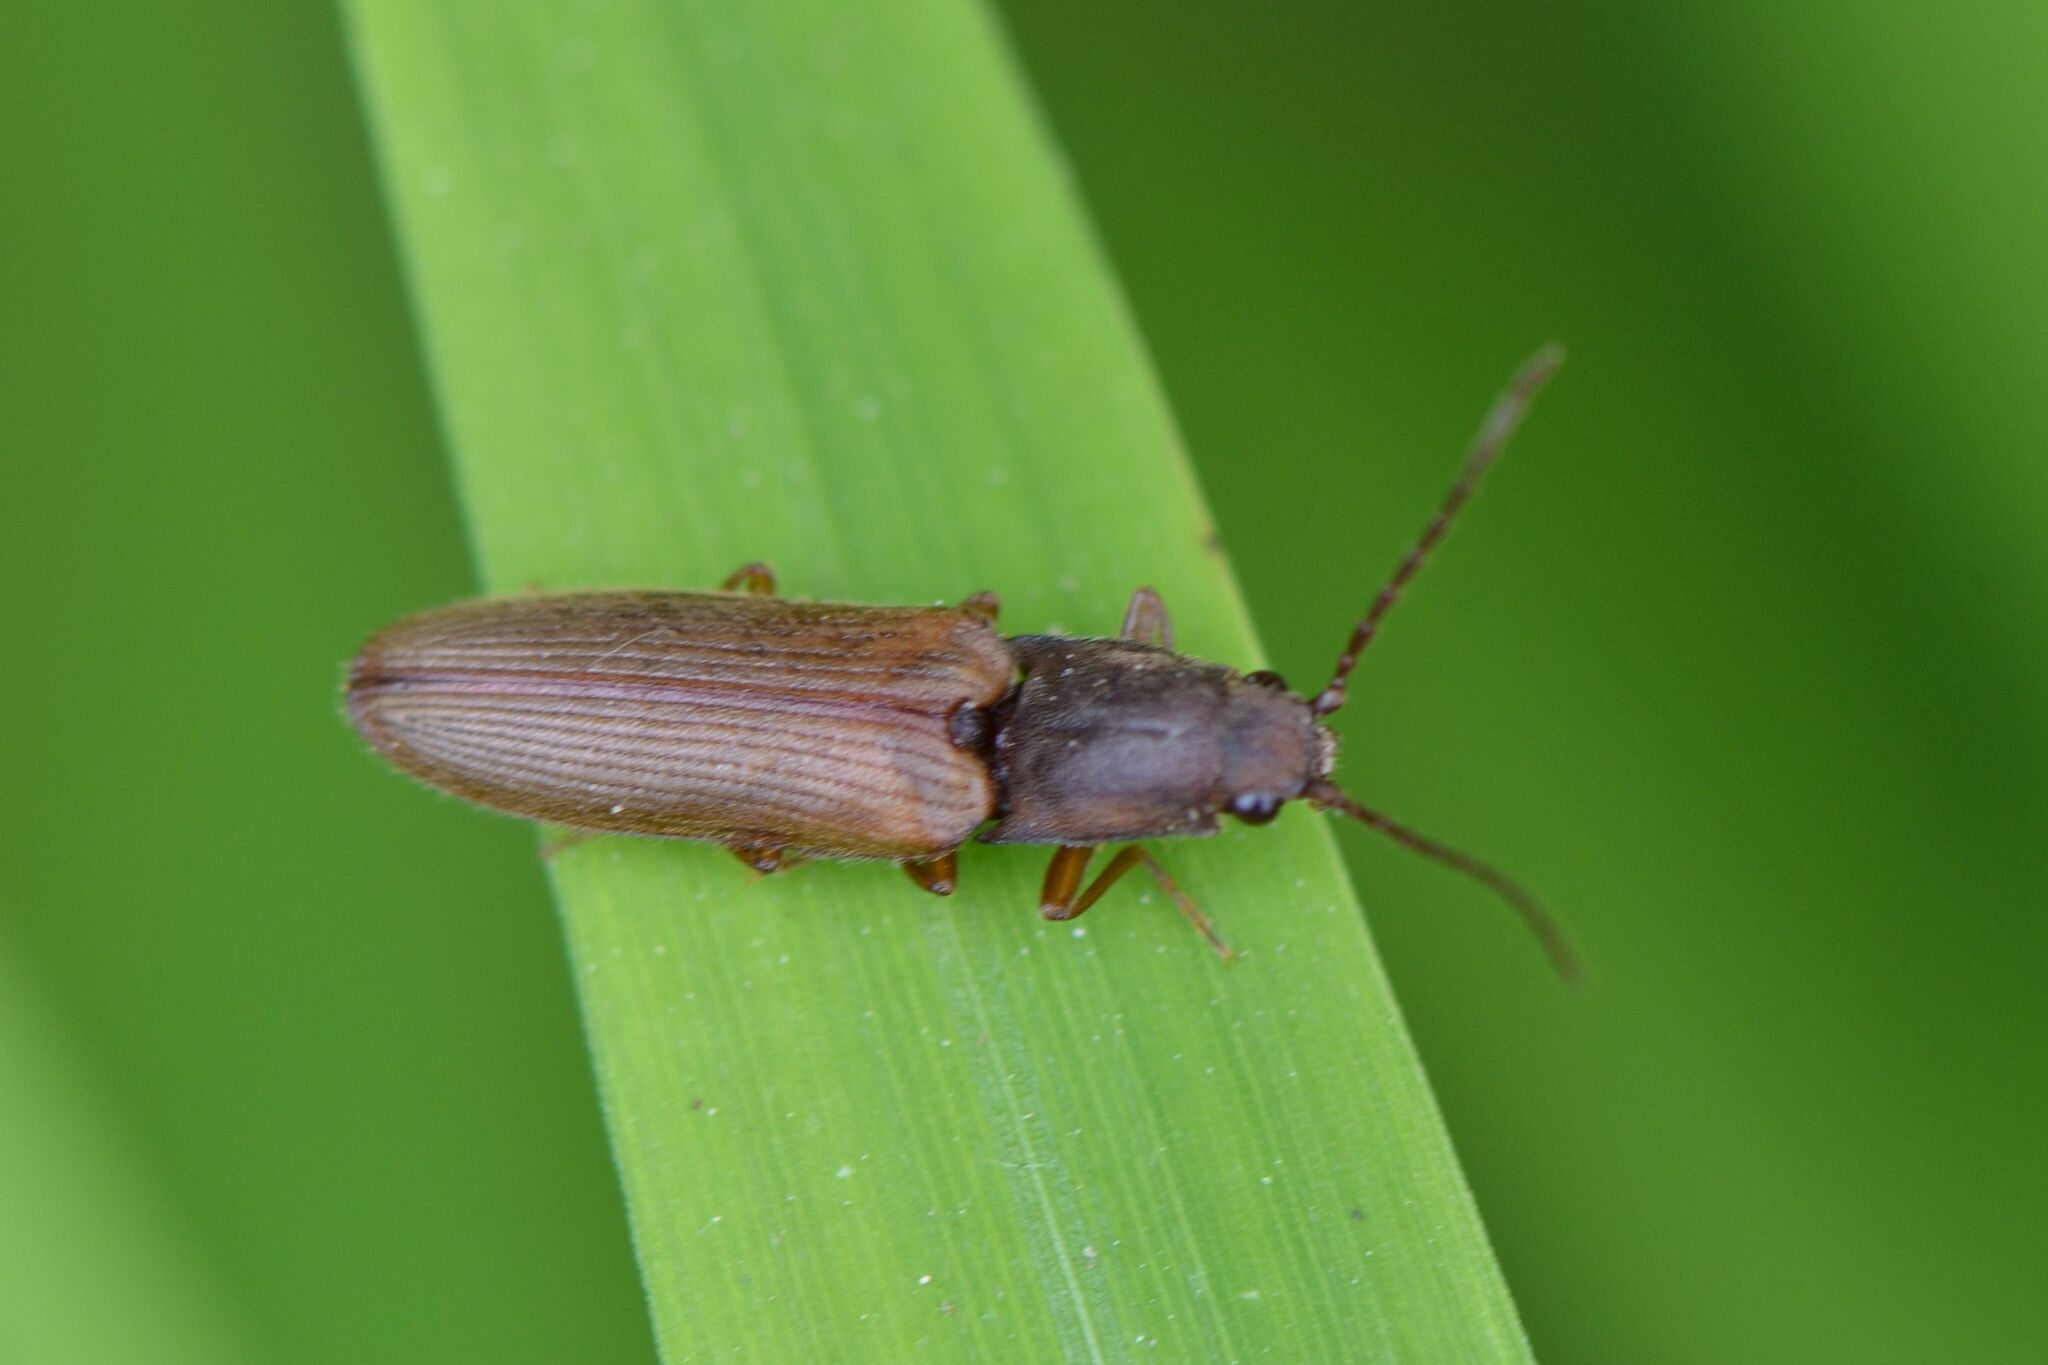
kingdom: Animalia
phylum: Arthropoda
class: Insecta
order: Coleoptera
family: Elateridae
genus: Athous
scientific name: Athous bicolor
